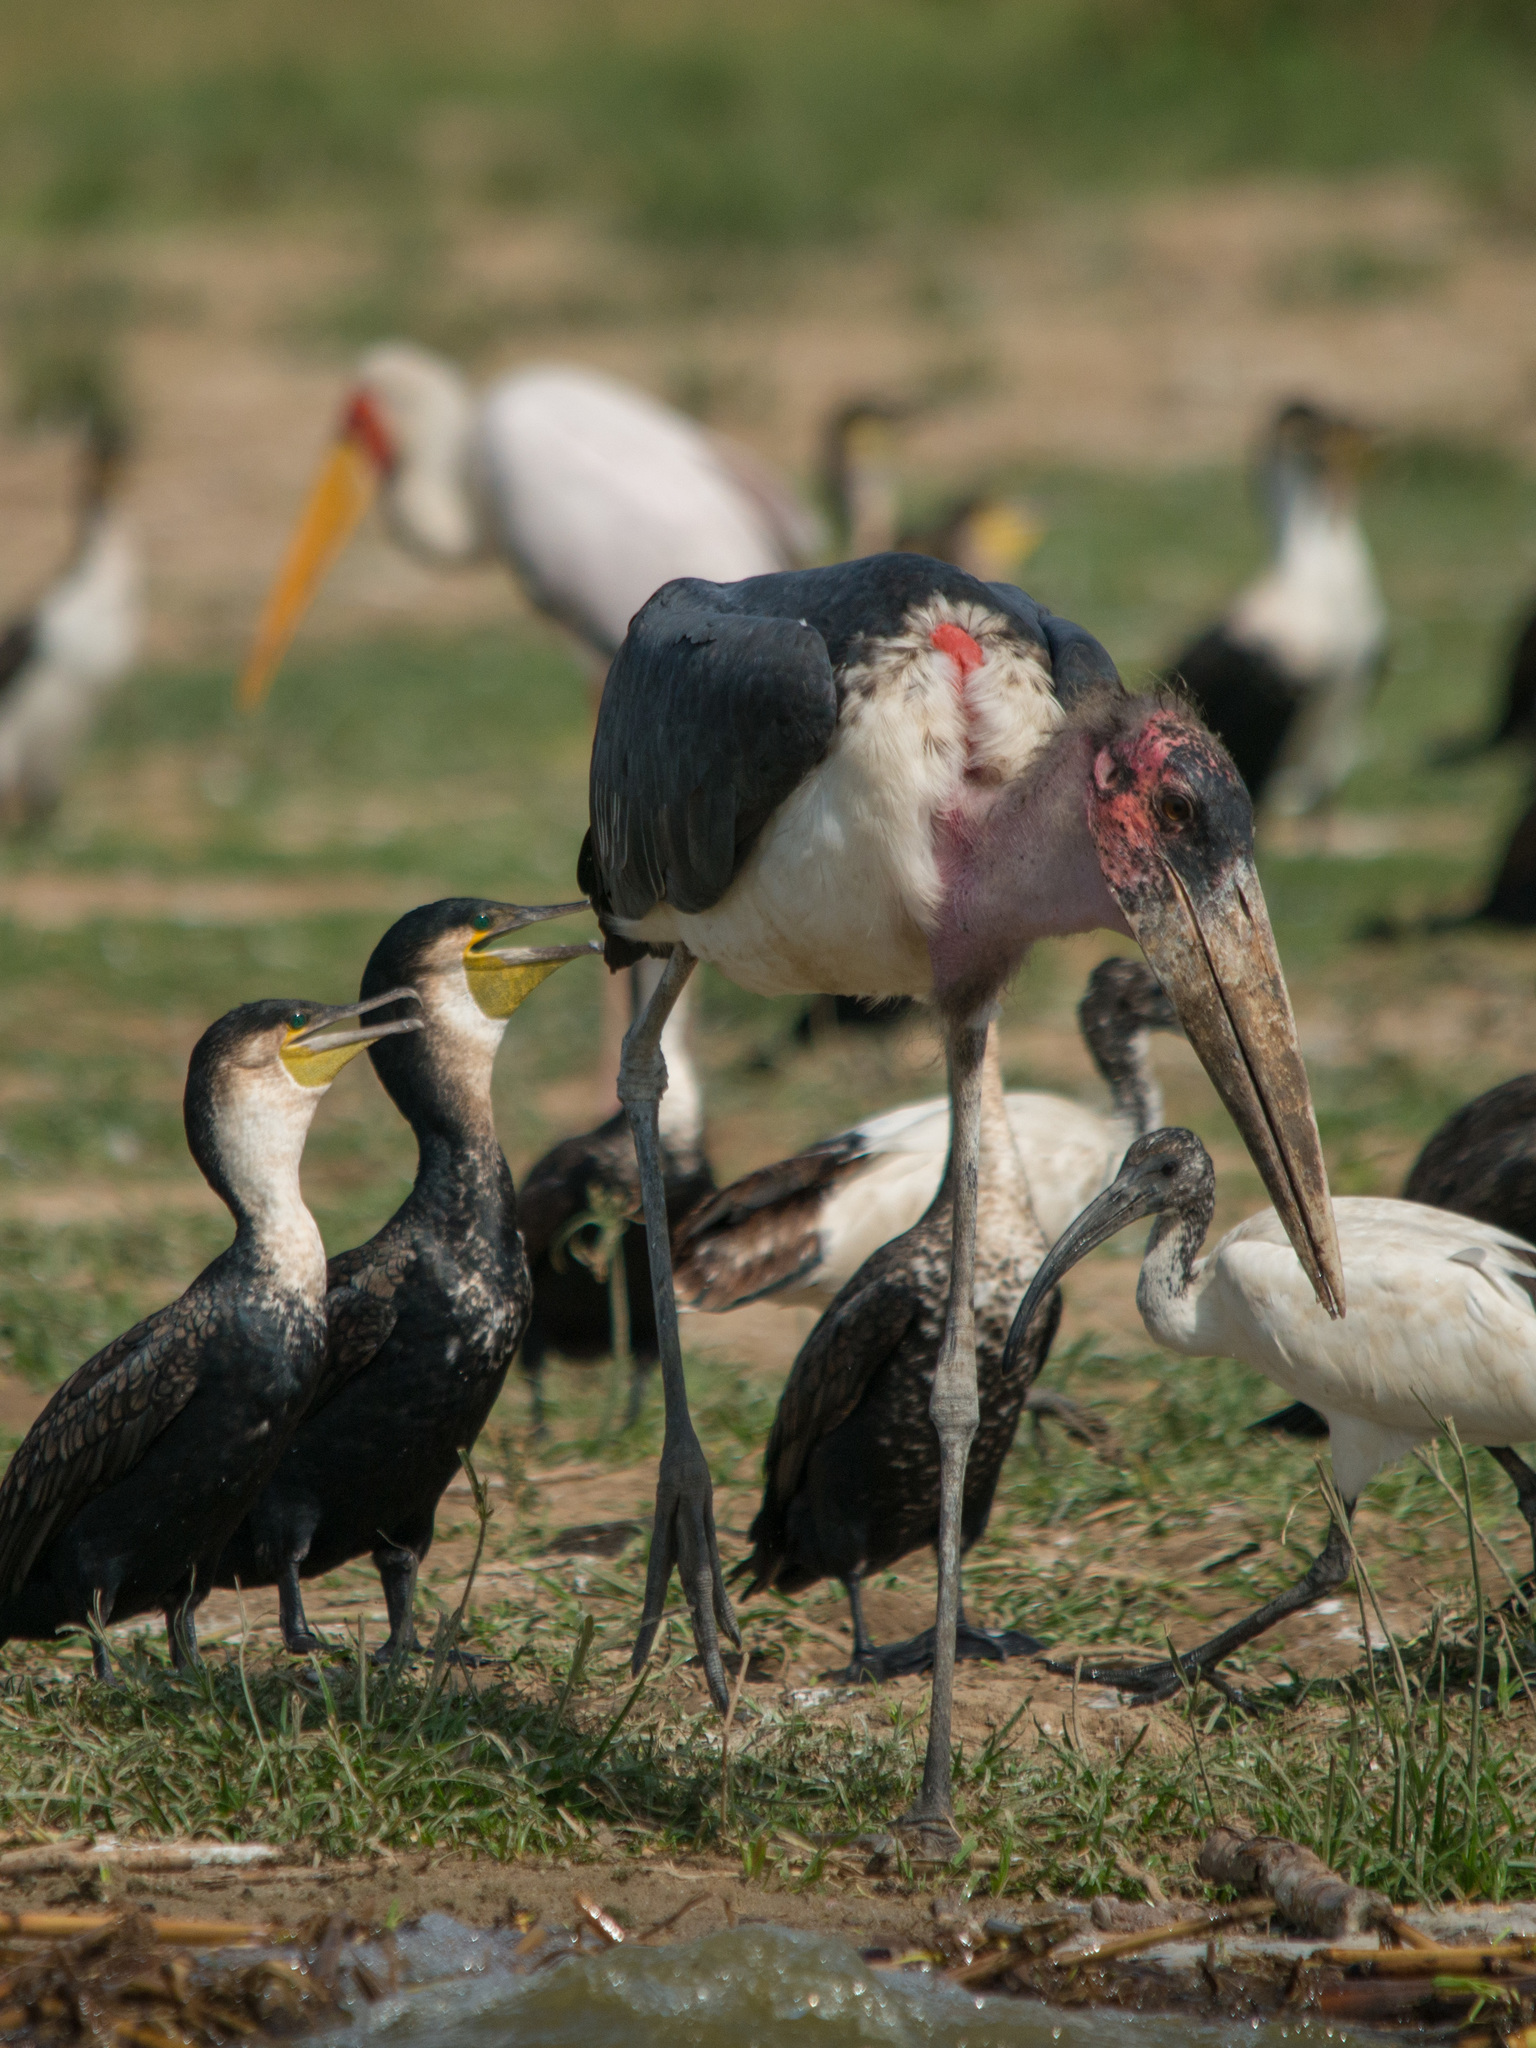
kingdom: Animalia
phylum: Chordata
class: Aves
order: Ciconiiformes
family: Ciconiidae
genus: Leptoptilos
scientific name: Leptoptilos crumenifer
